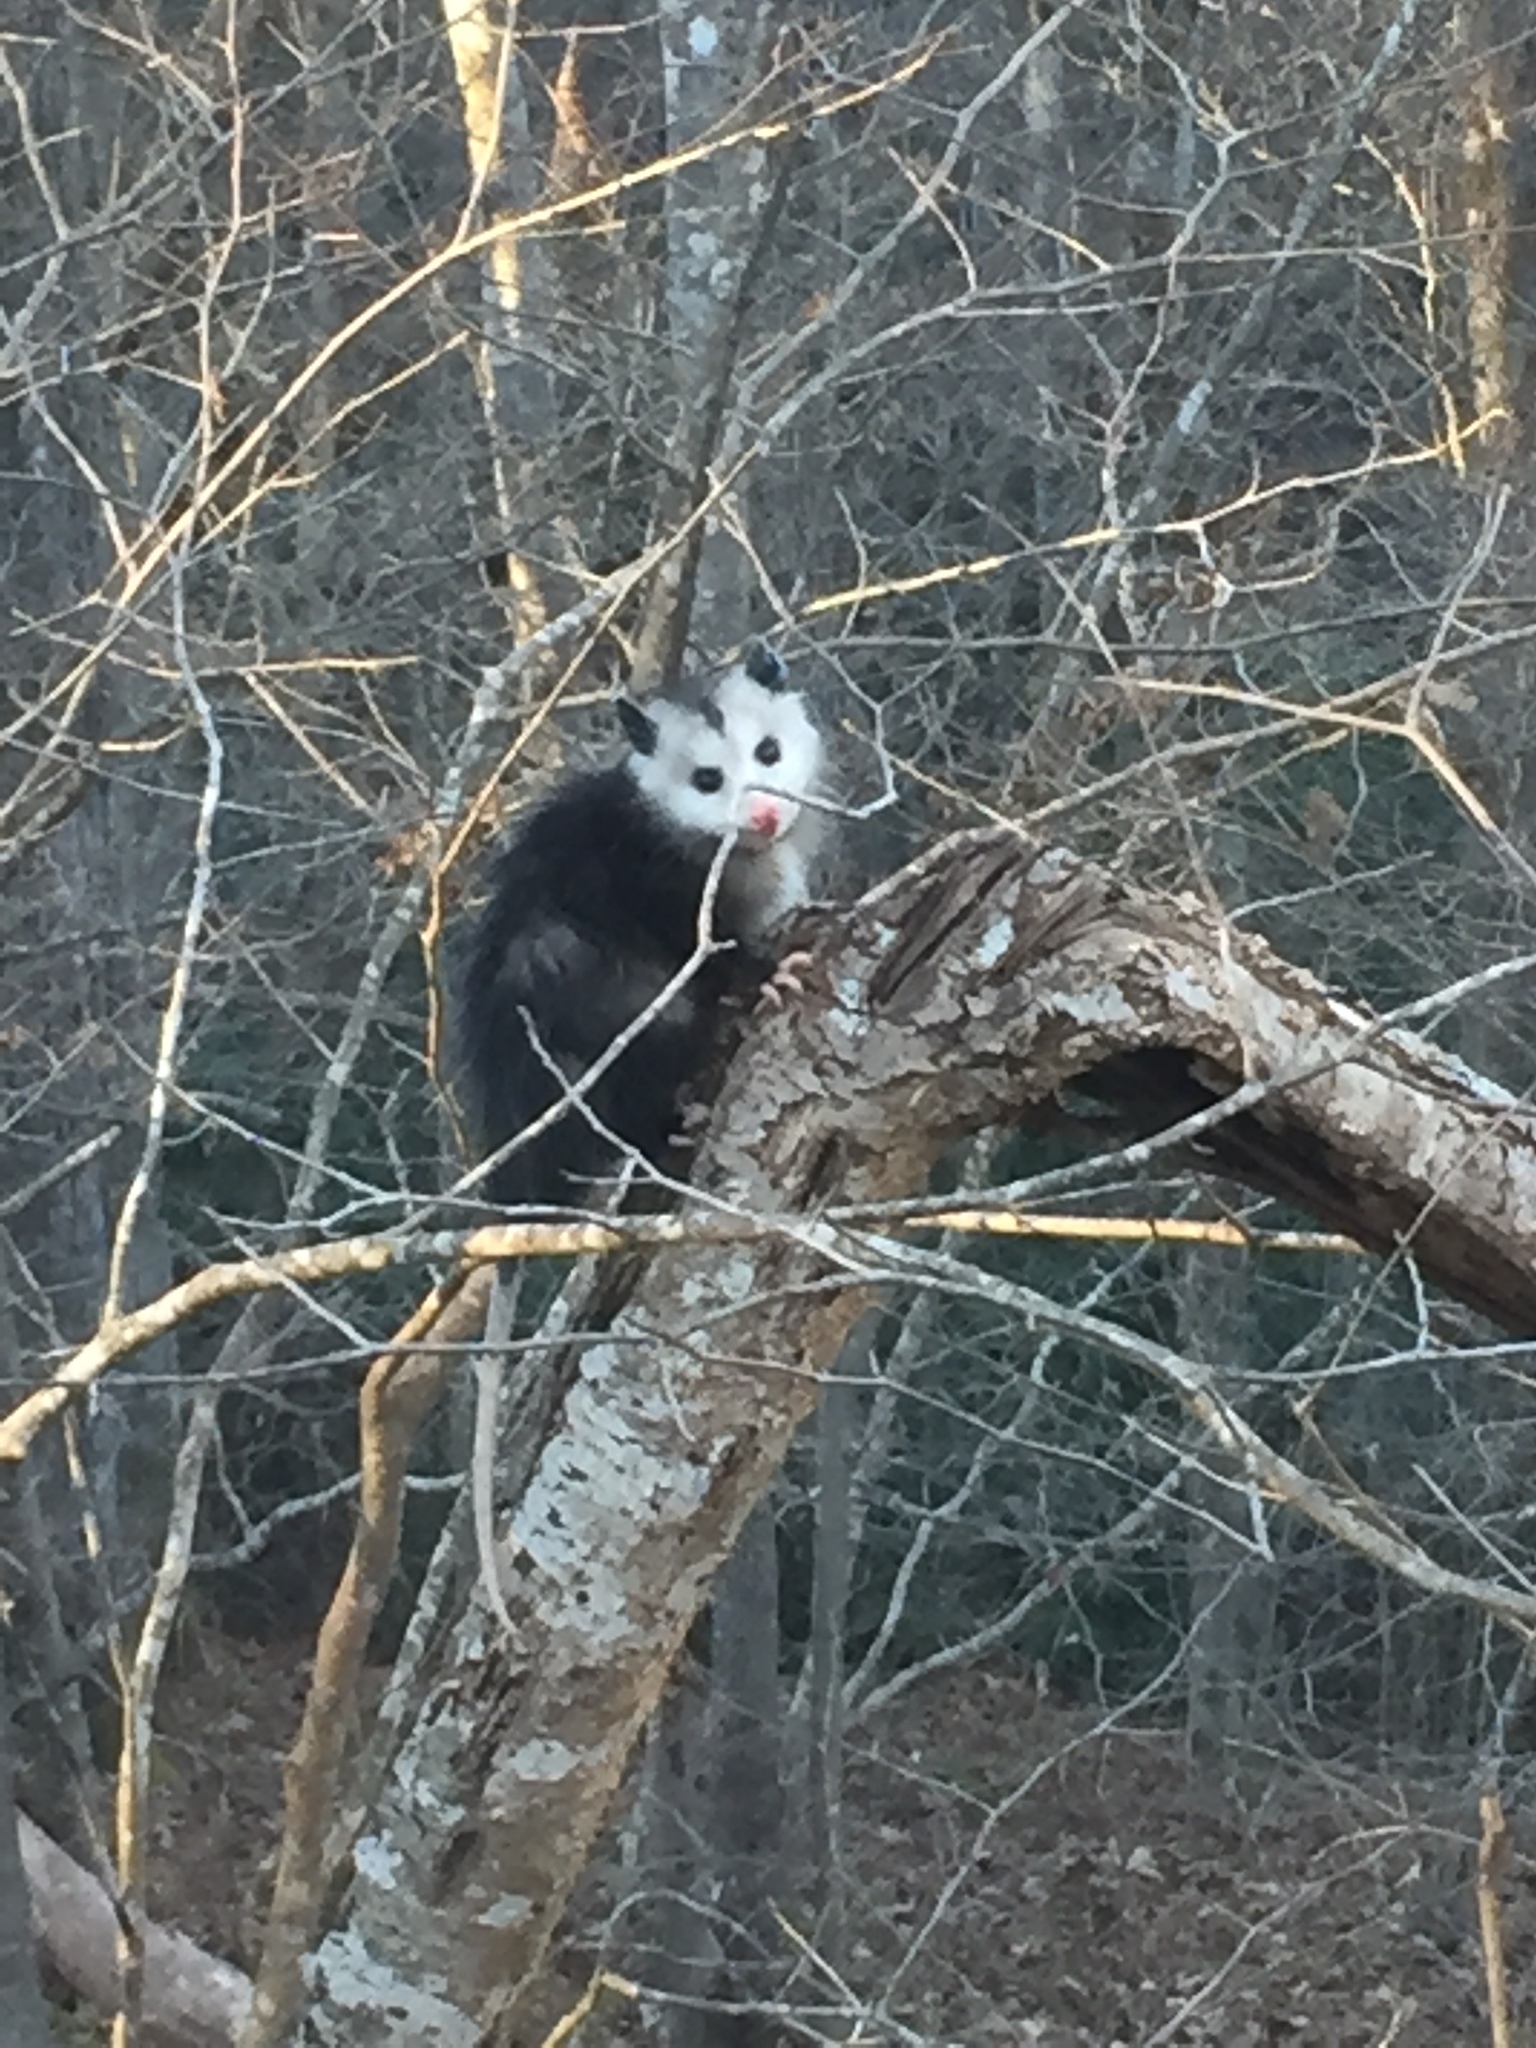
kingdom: Animalia
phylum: Chordata
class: Mammalia
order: Didelphimorphia
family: Didelphidae
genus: Didelphis
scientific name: Didelphis virginiana
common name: Virginia opossum
